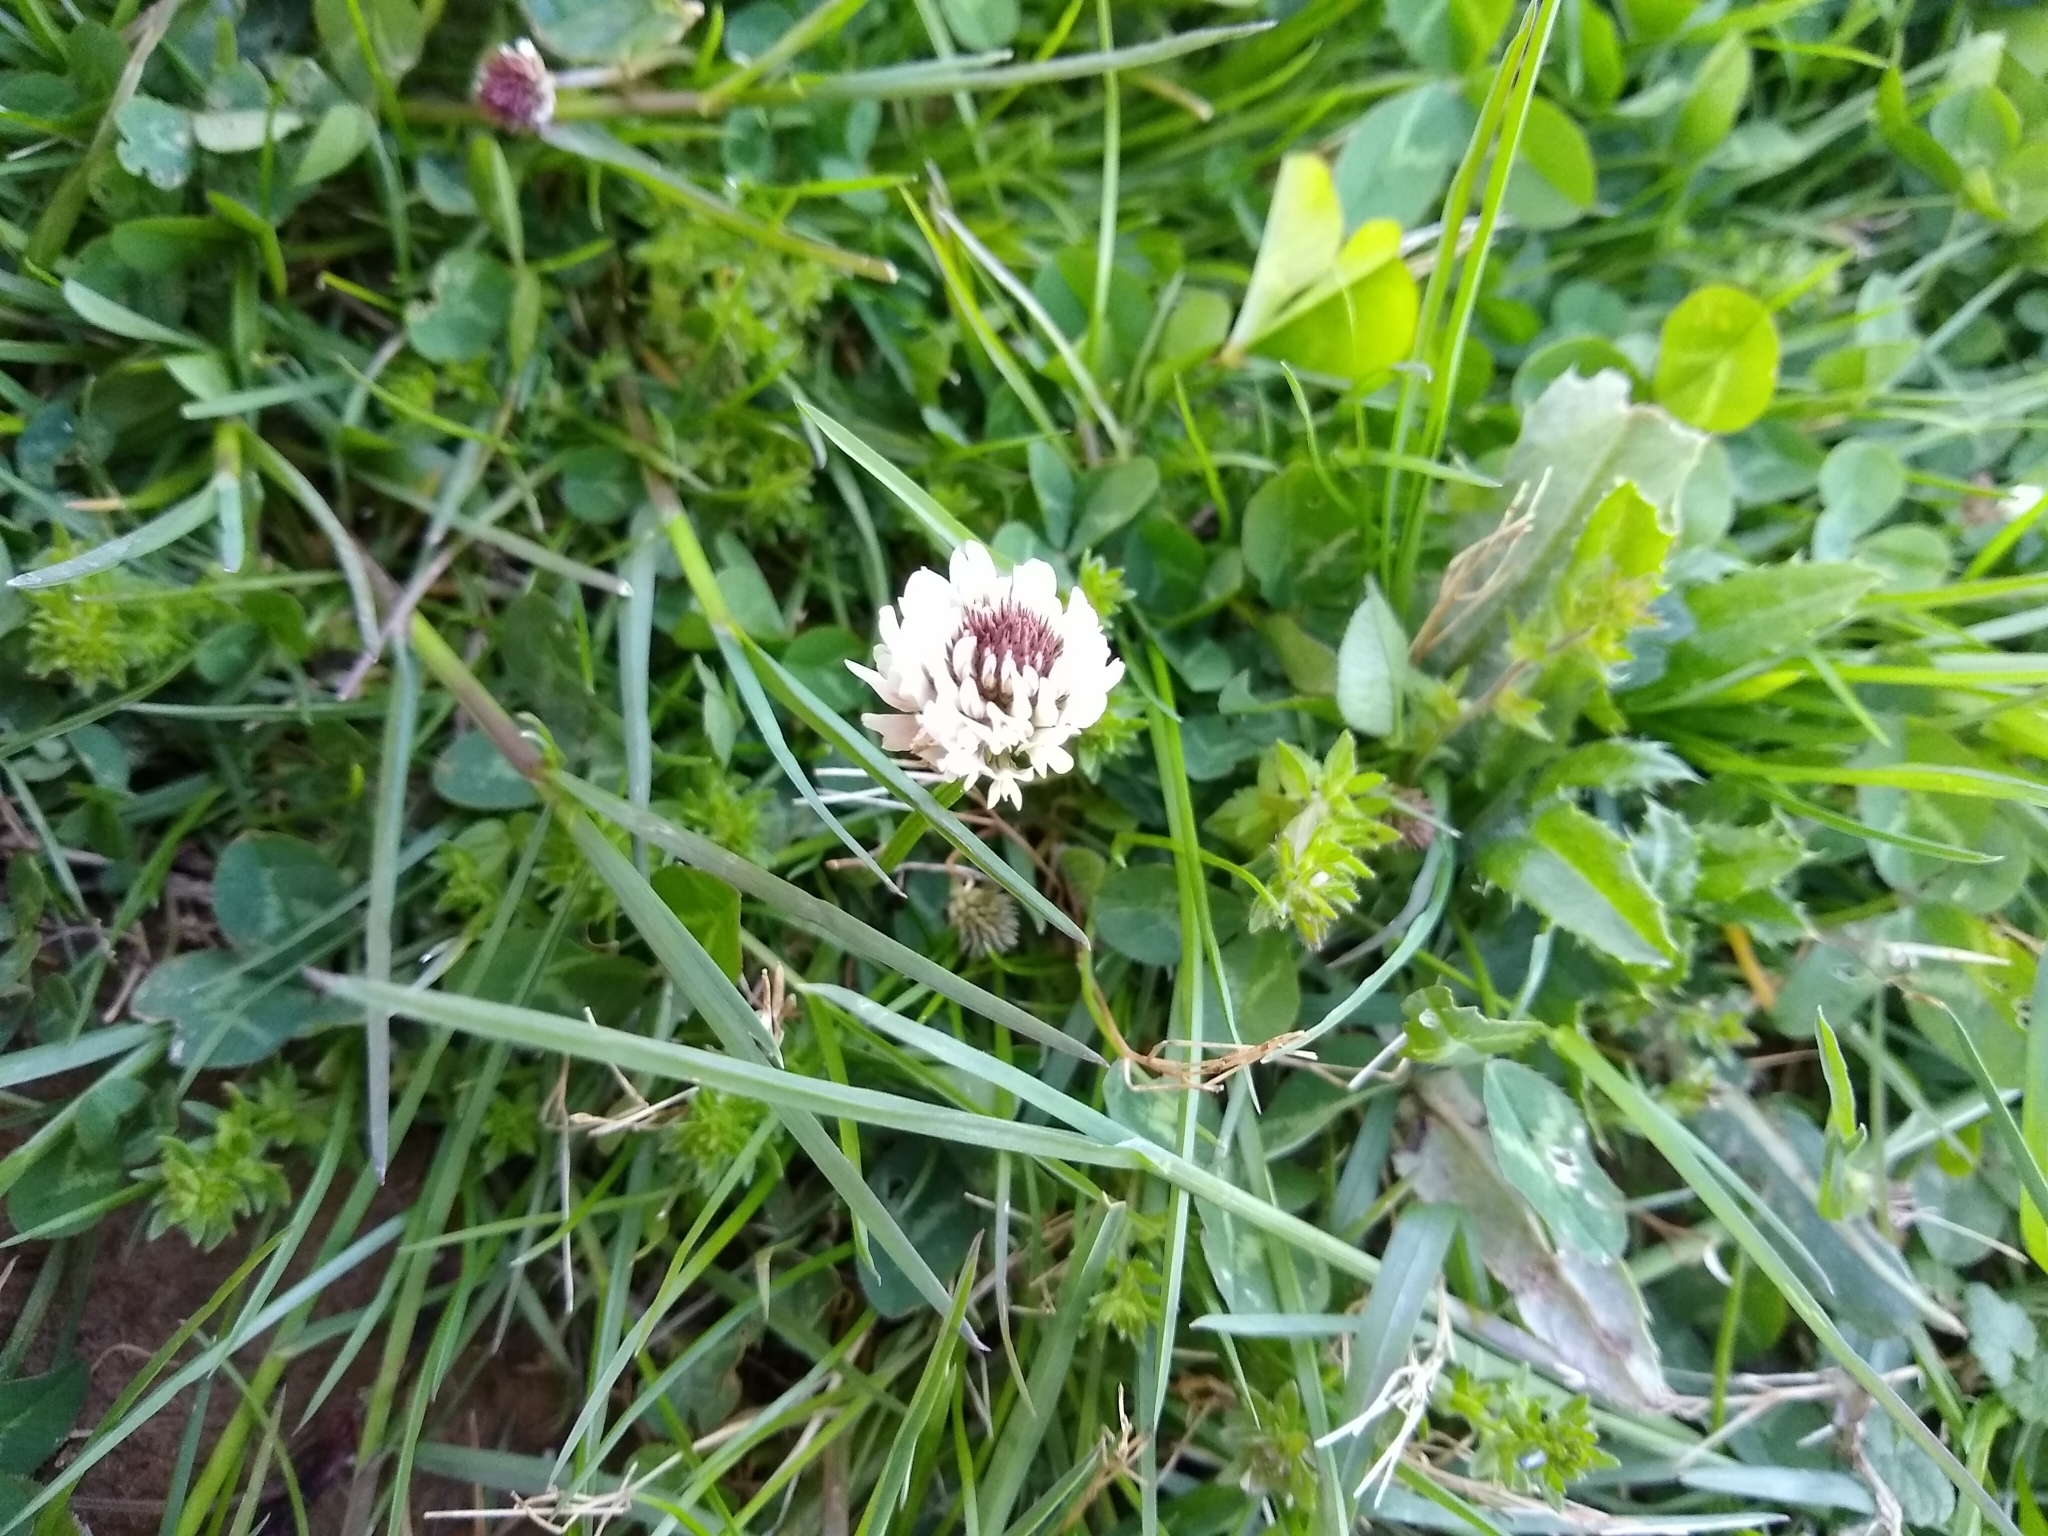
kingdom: Plantae
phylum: Tracheophyta
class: Magnoliopsida
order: Fabales
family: Fabaceae
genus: Trifolium
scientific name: Trifolium repens
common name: White clover
